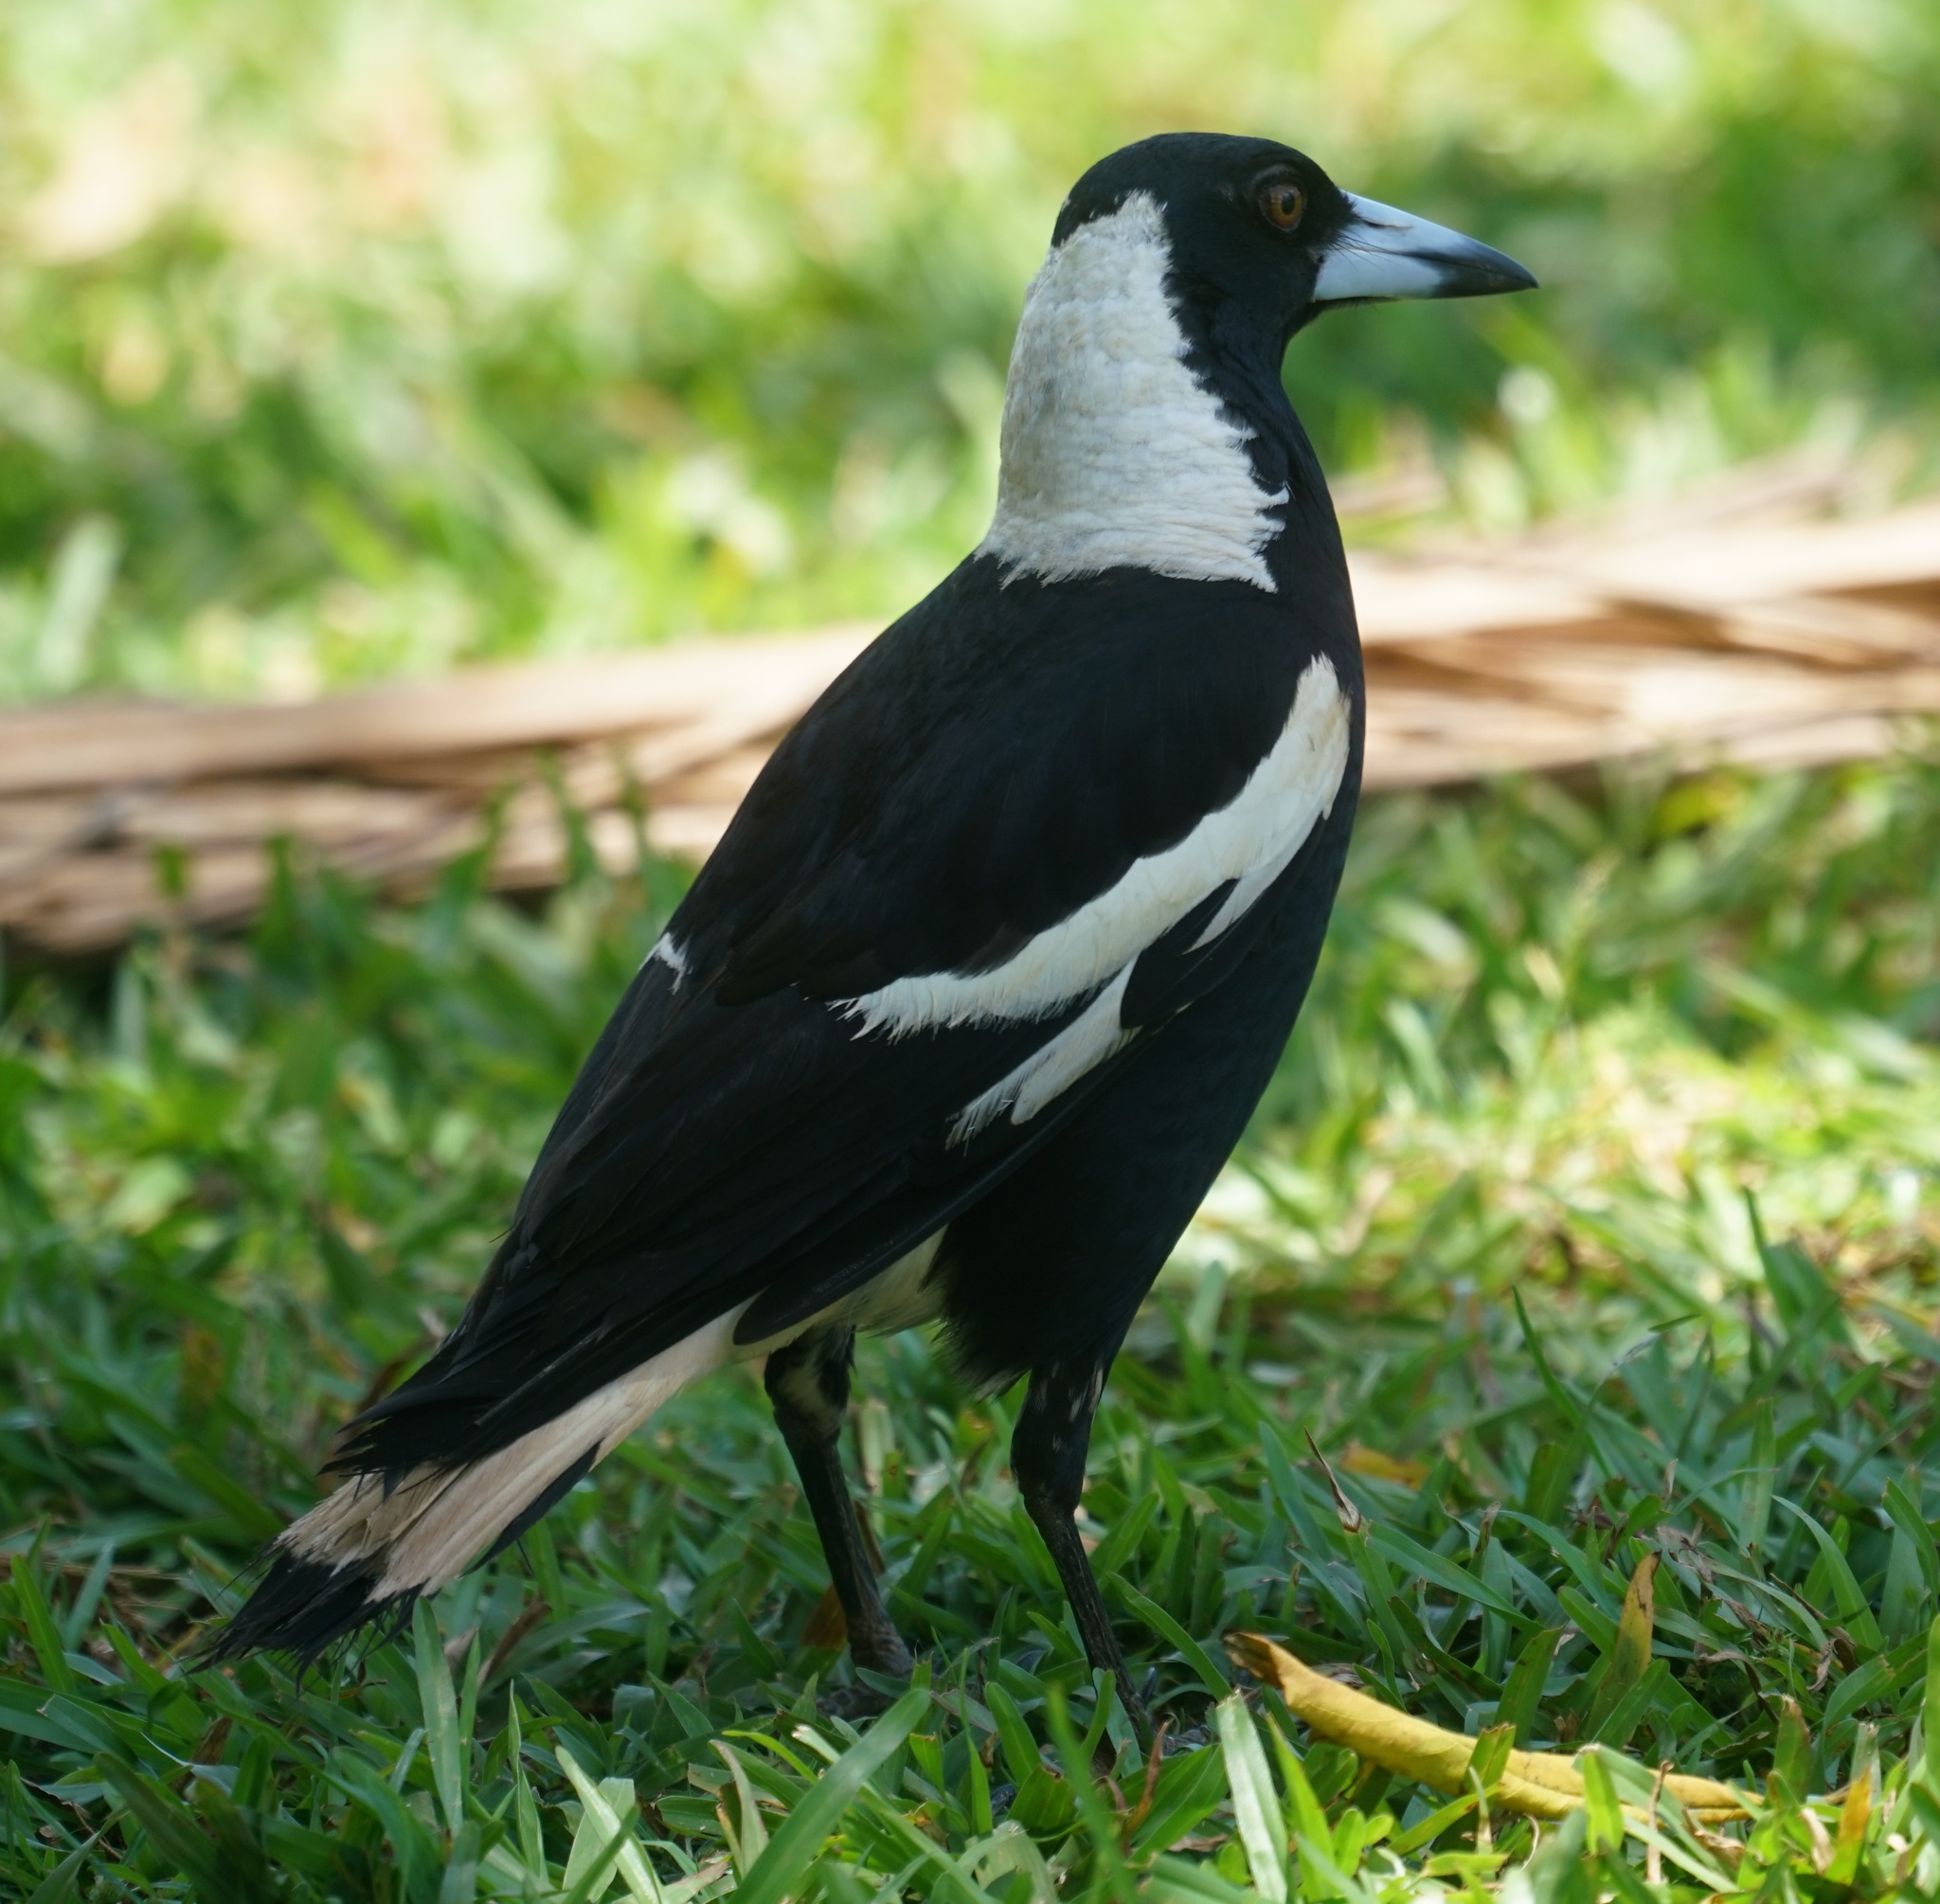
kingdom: Animalia
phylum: Chordata
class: Aves
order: Passeriformes
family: Cracticidae
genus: Gymnorhina
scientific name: Gymnorhina tibicen
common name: Australian magpie
